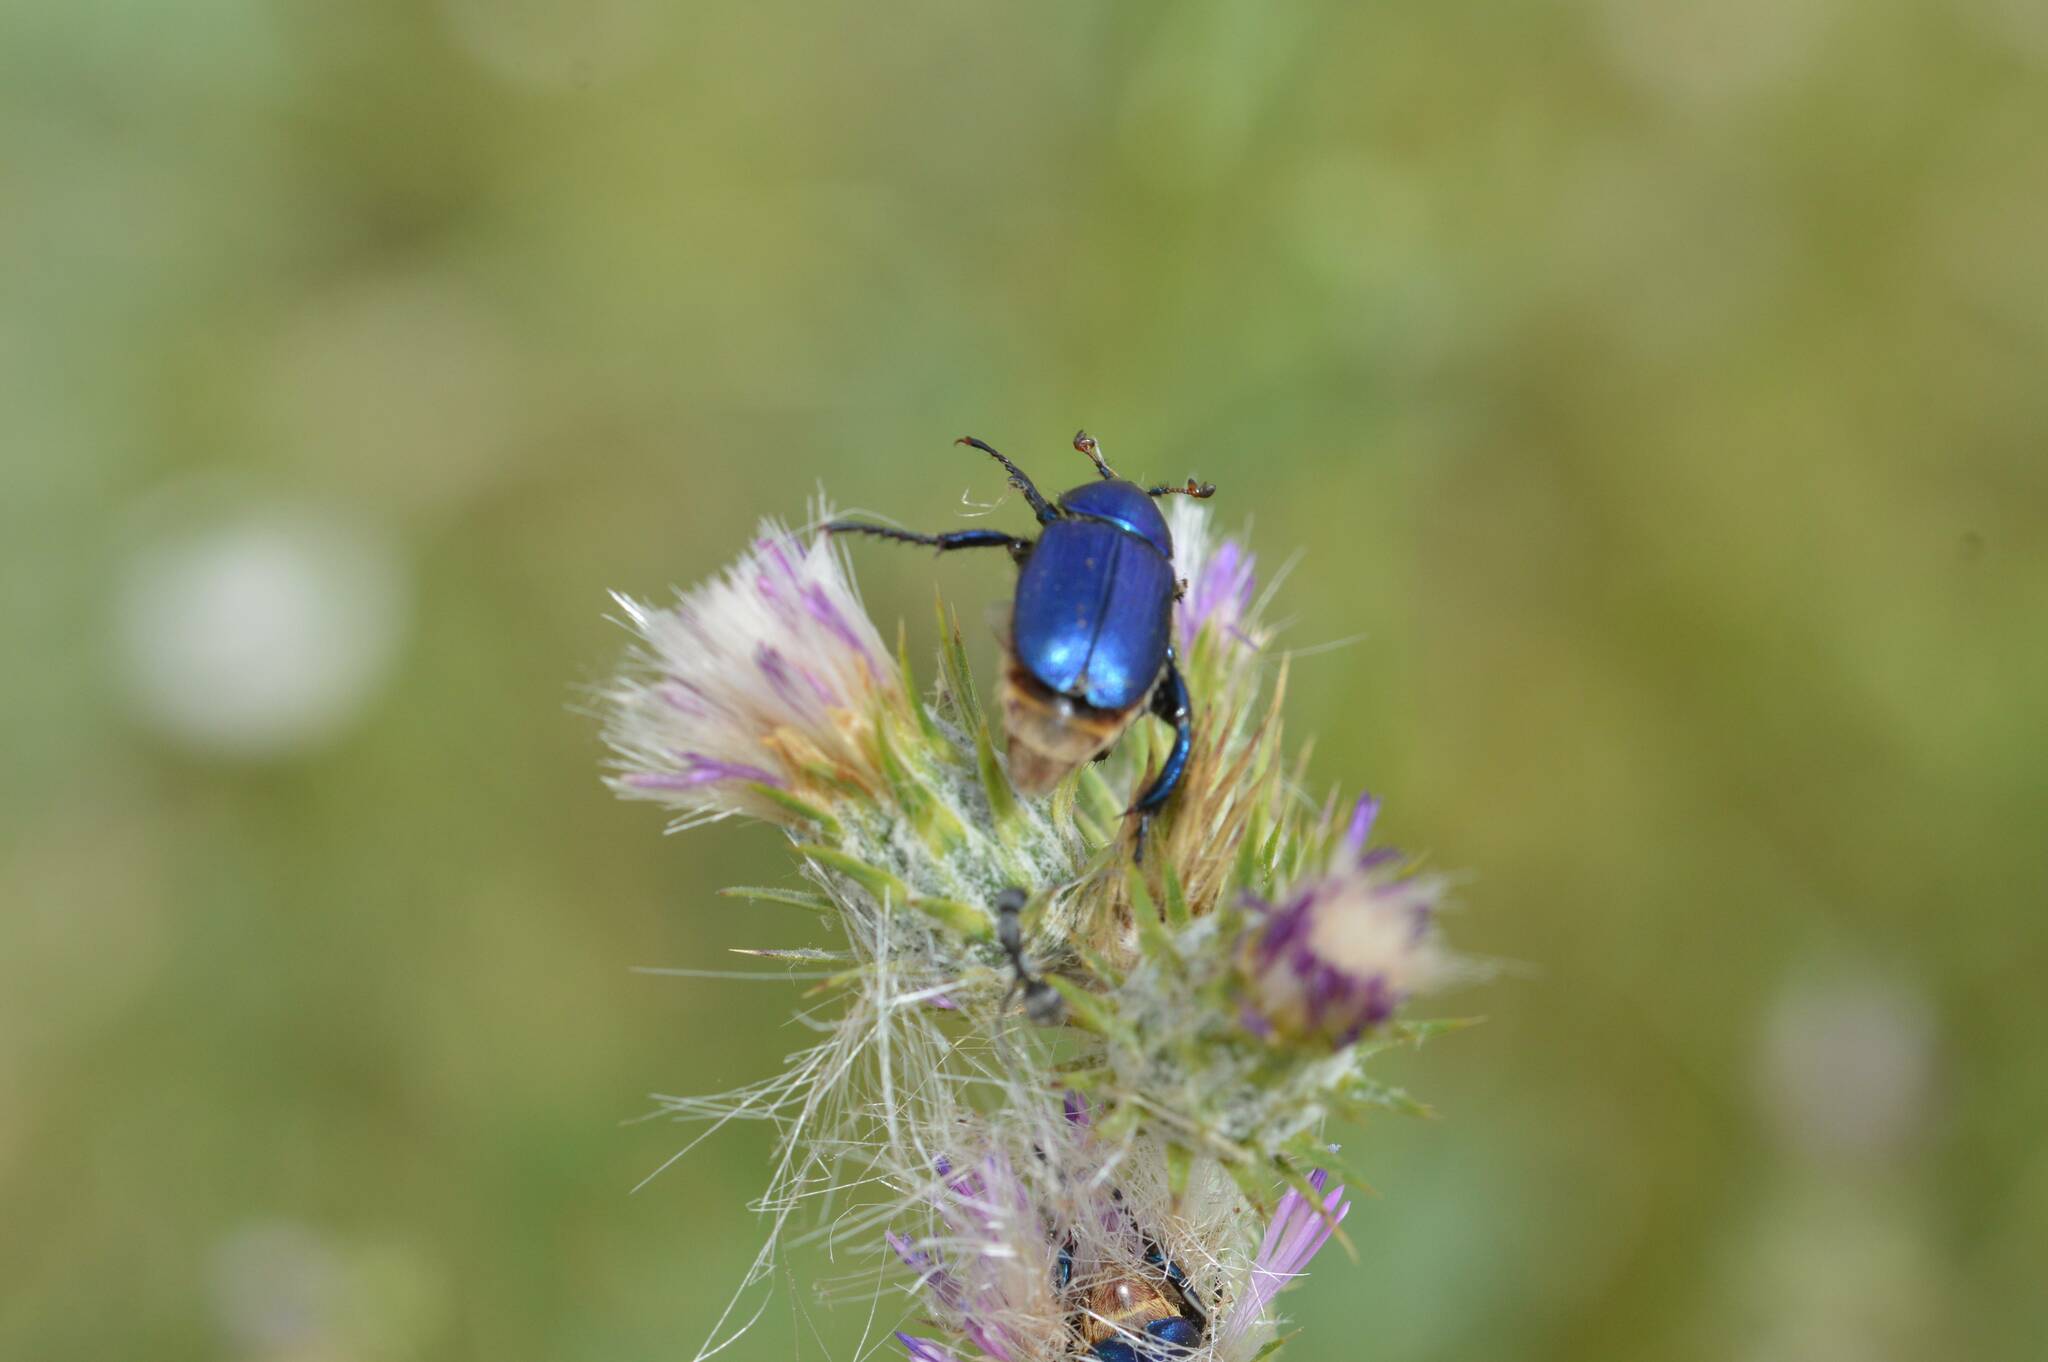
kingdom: Animalia
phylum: Arthropoda
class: Insecta
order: Coleoptera
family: Glaphyridae
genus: Glaphyrus
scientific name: Glaphyrus maurus
